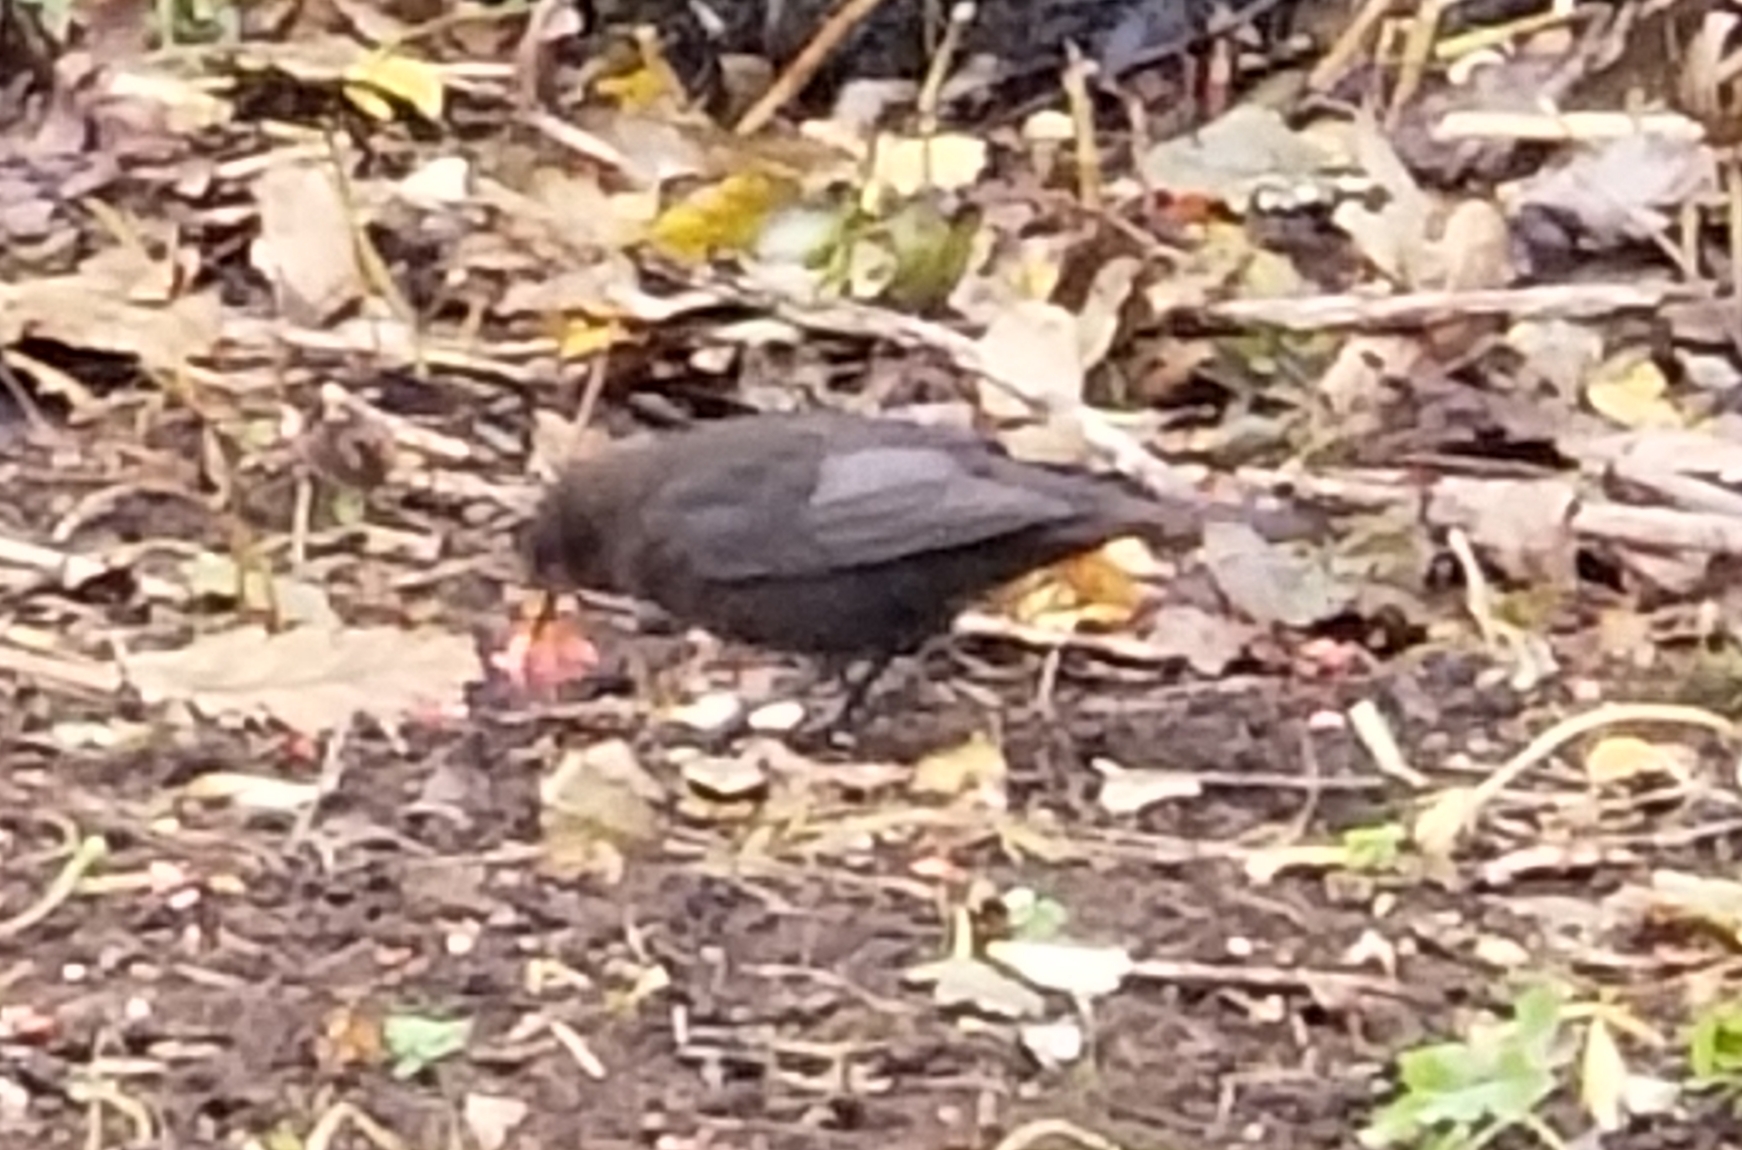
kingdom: Animalia
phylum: Chordata
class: Aves
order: Passeriformes
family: Turdidae
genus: Turdus
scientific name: Turdus merula
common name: Common blackbird
